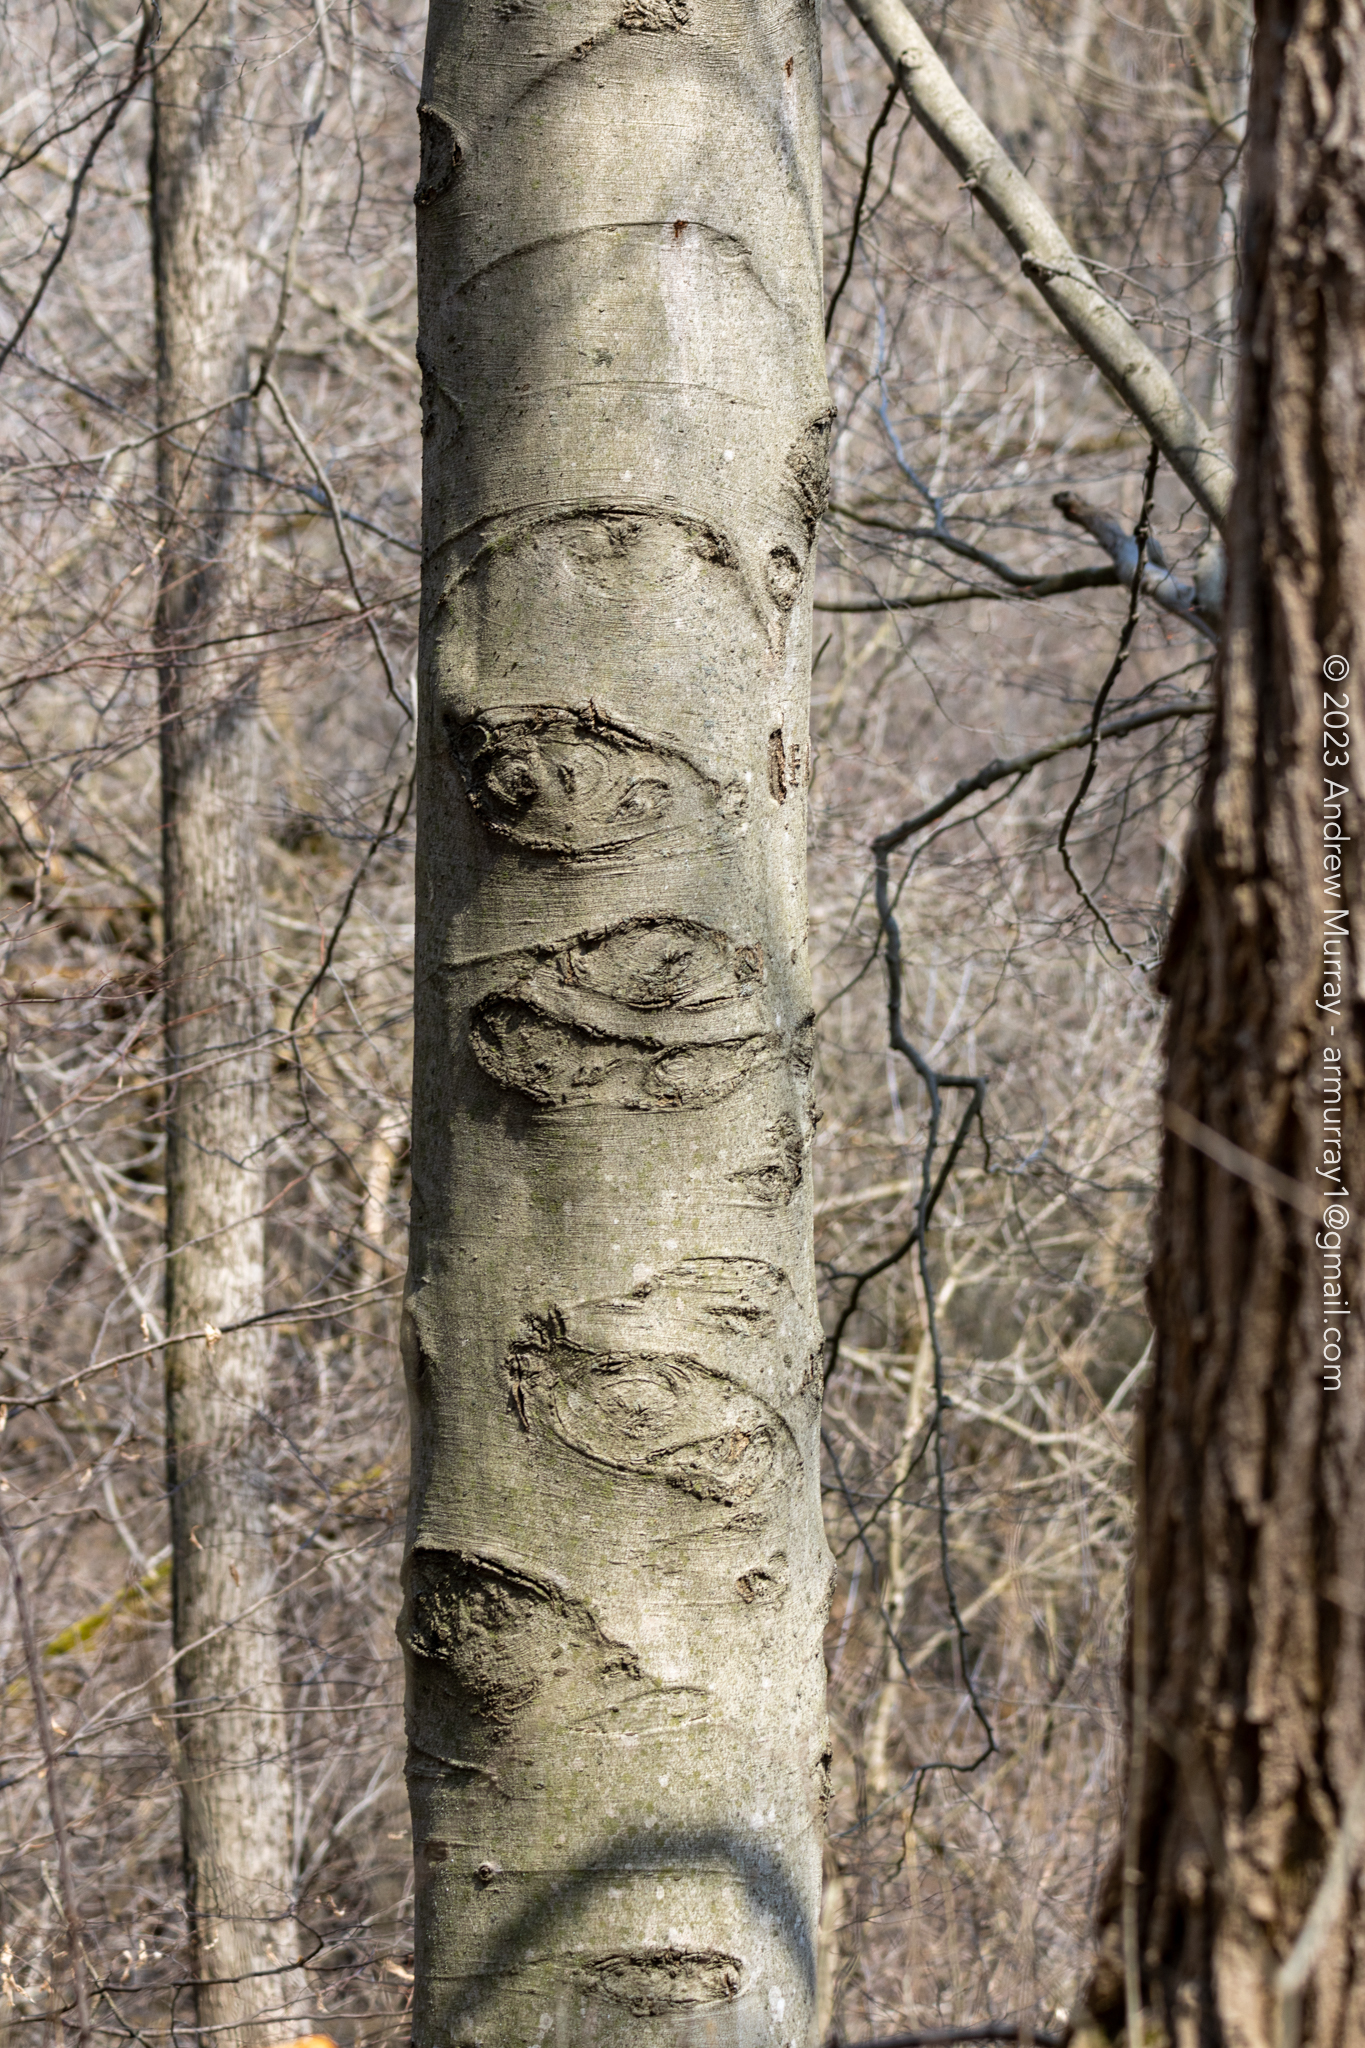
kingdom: Plantae
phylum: Tracheophyta
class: Magnoliopsida
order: Fagales
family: Fagaceae
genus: Fagus
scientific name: Fagus grandifolia
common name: American beech
